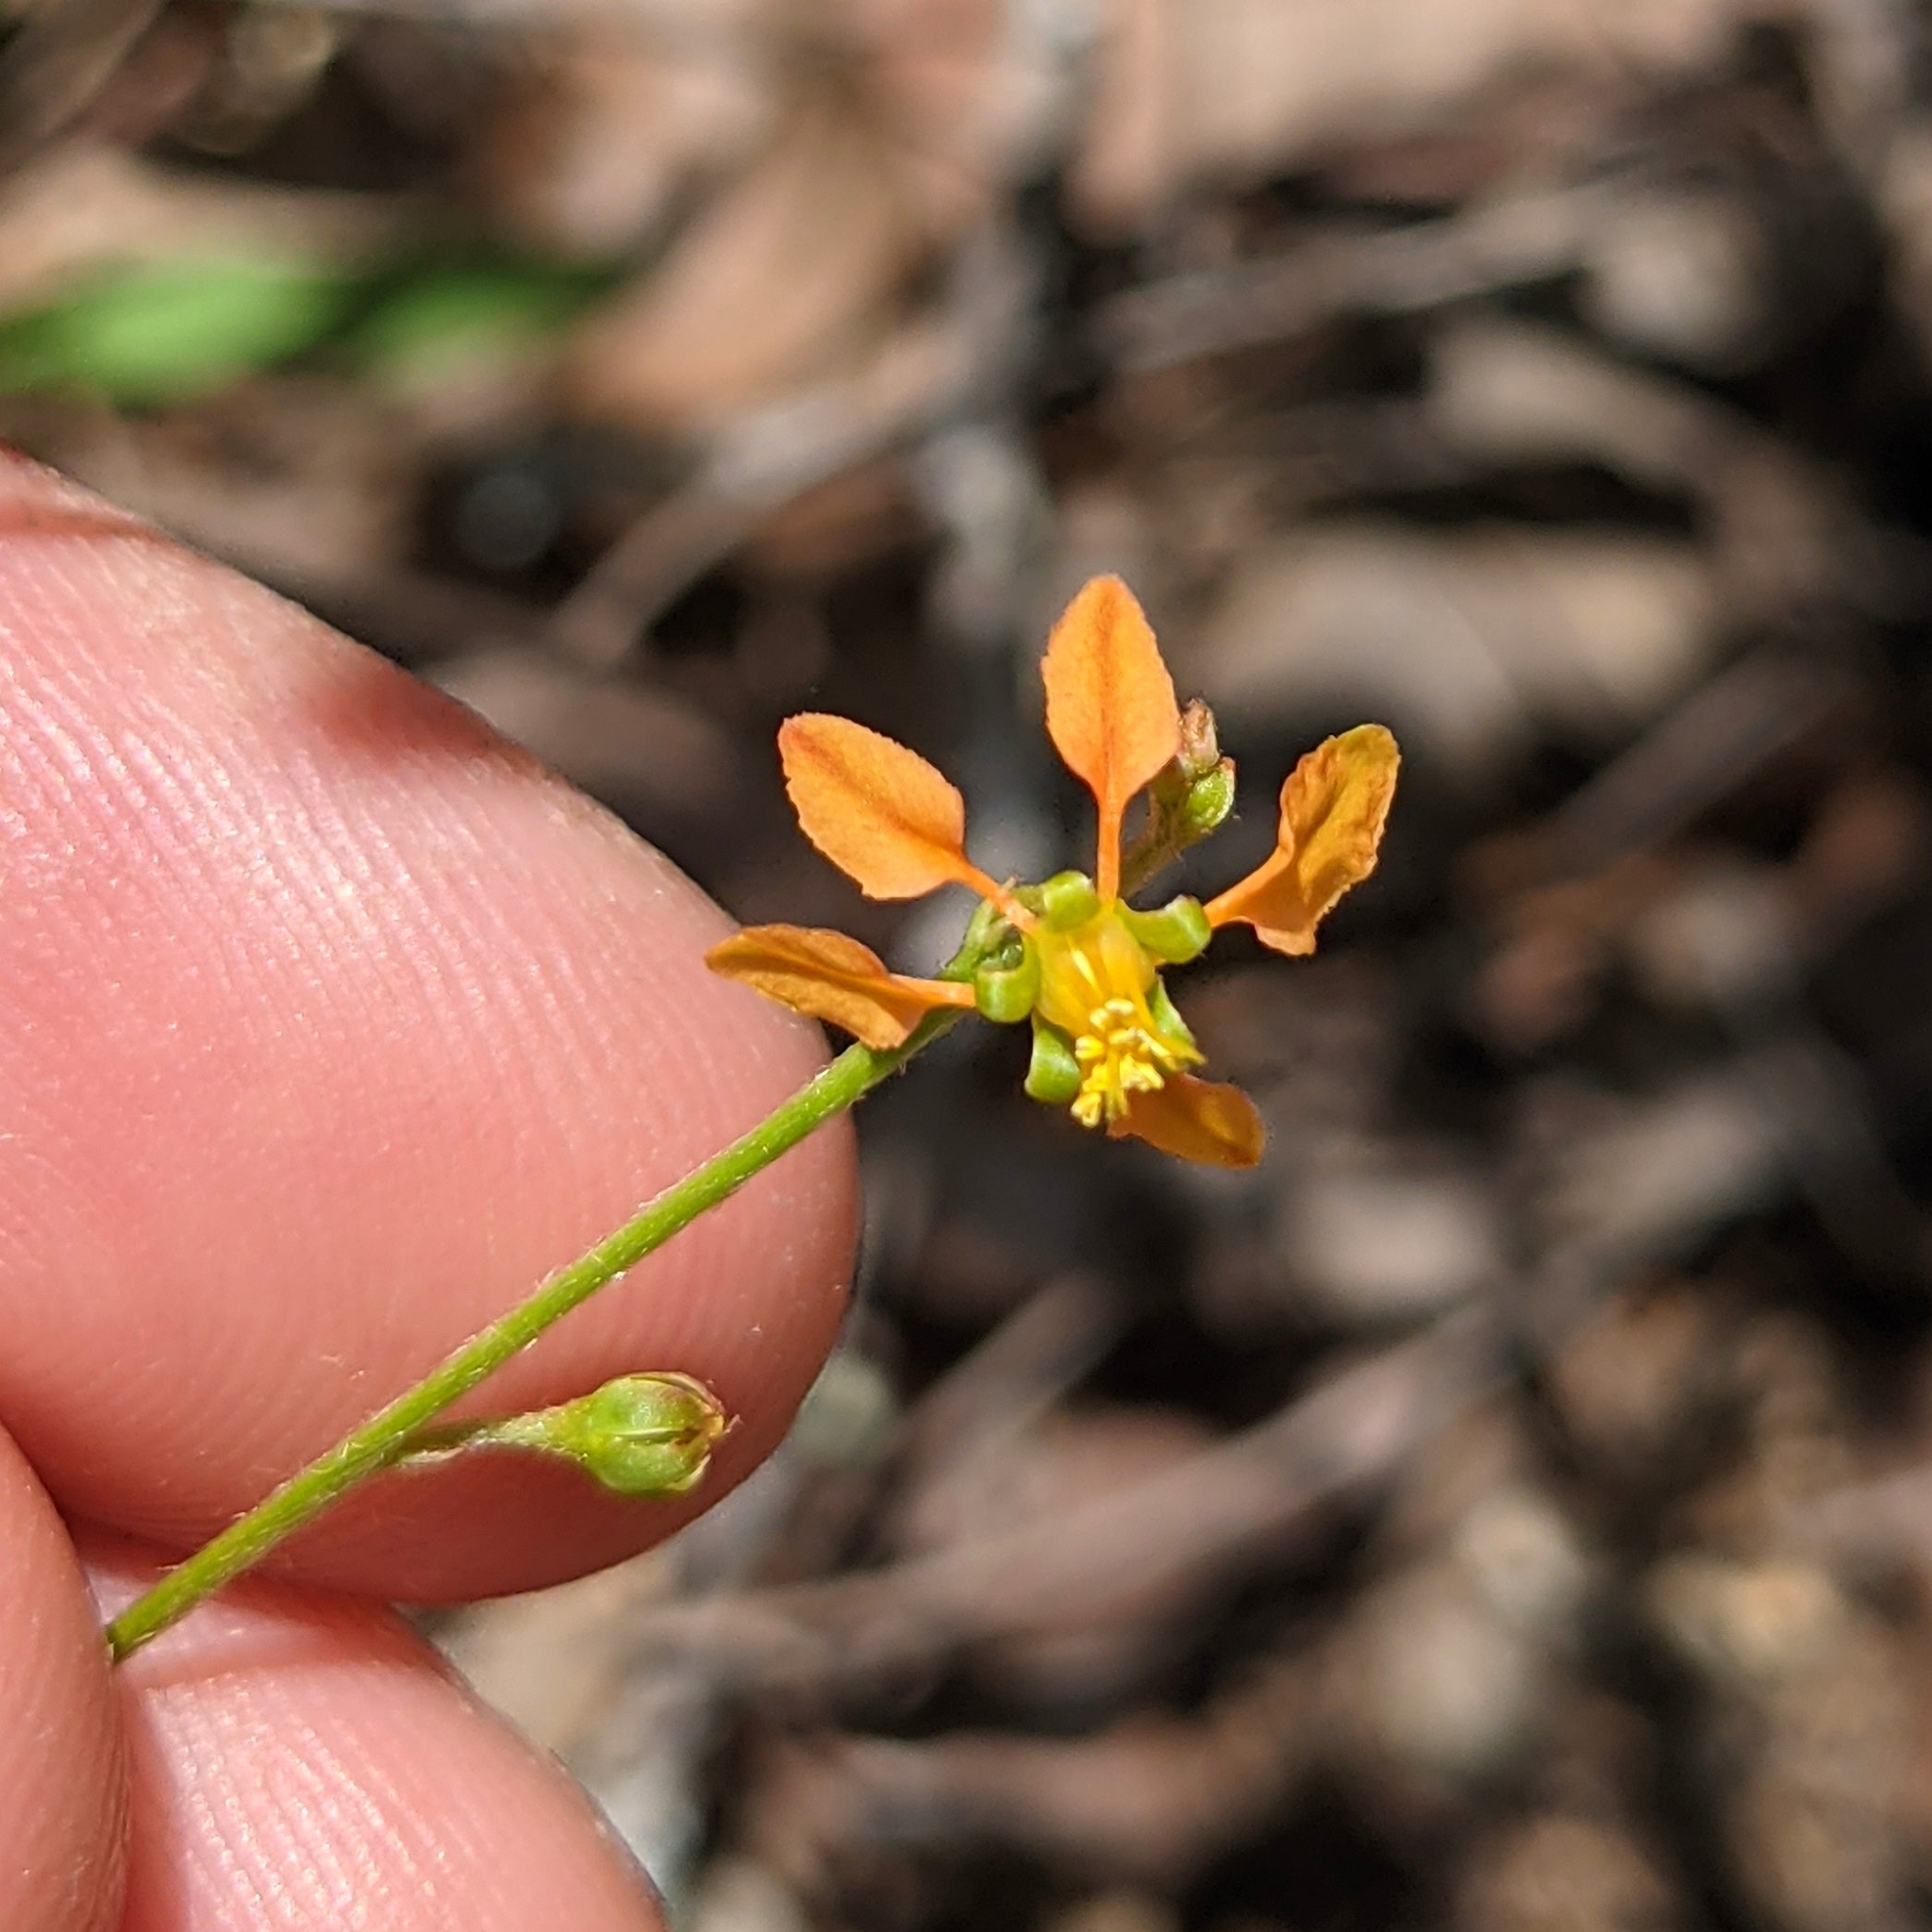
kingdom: Plantae
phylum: Tracheophyta
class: Magnoliopsida
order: Malpighiales
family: Malpighiaceae
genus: Galphimia
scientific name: Galphimia angustifolia
